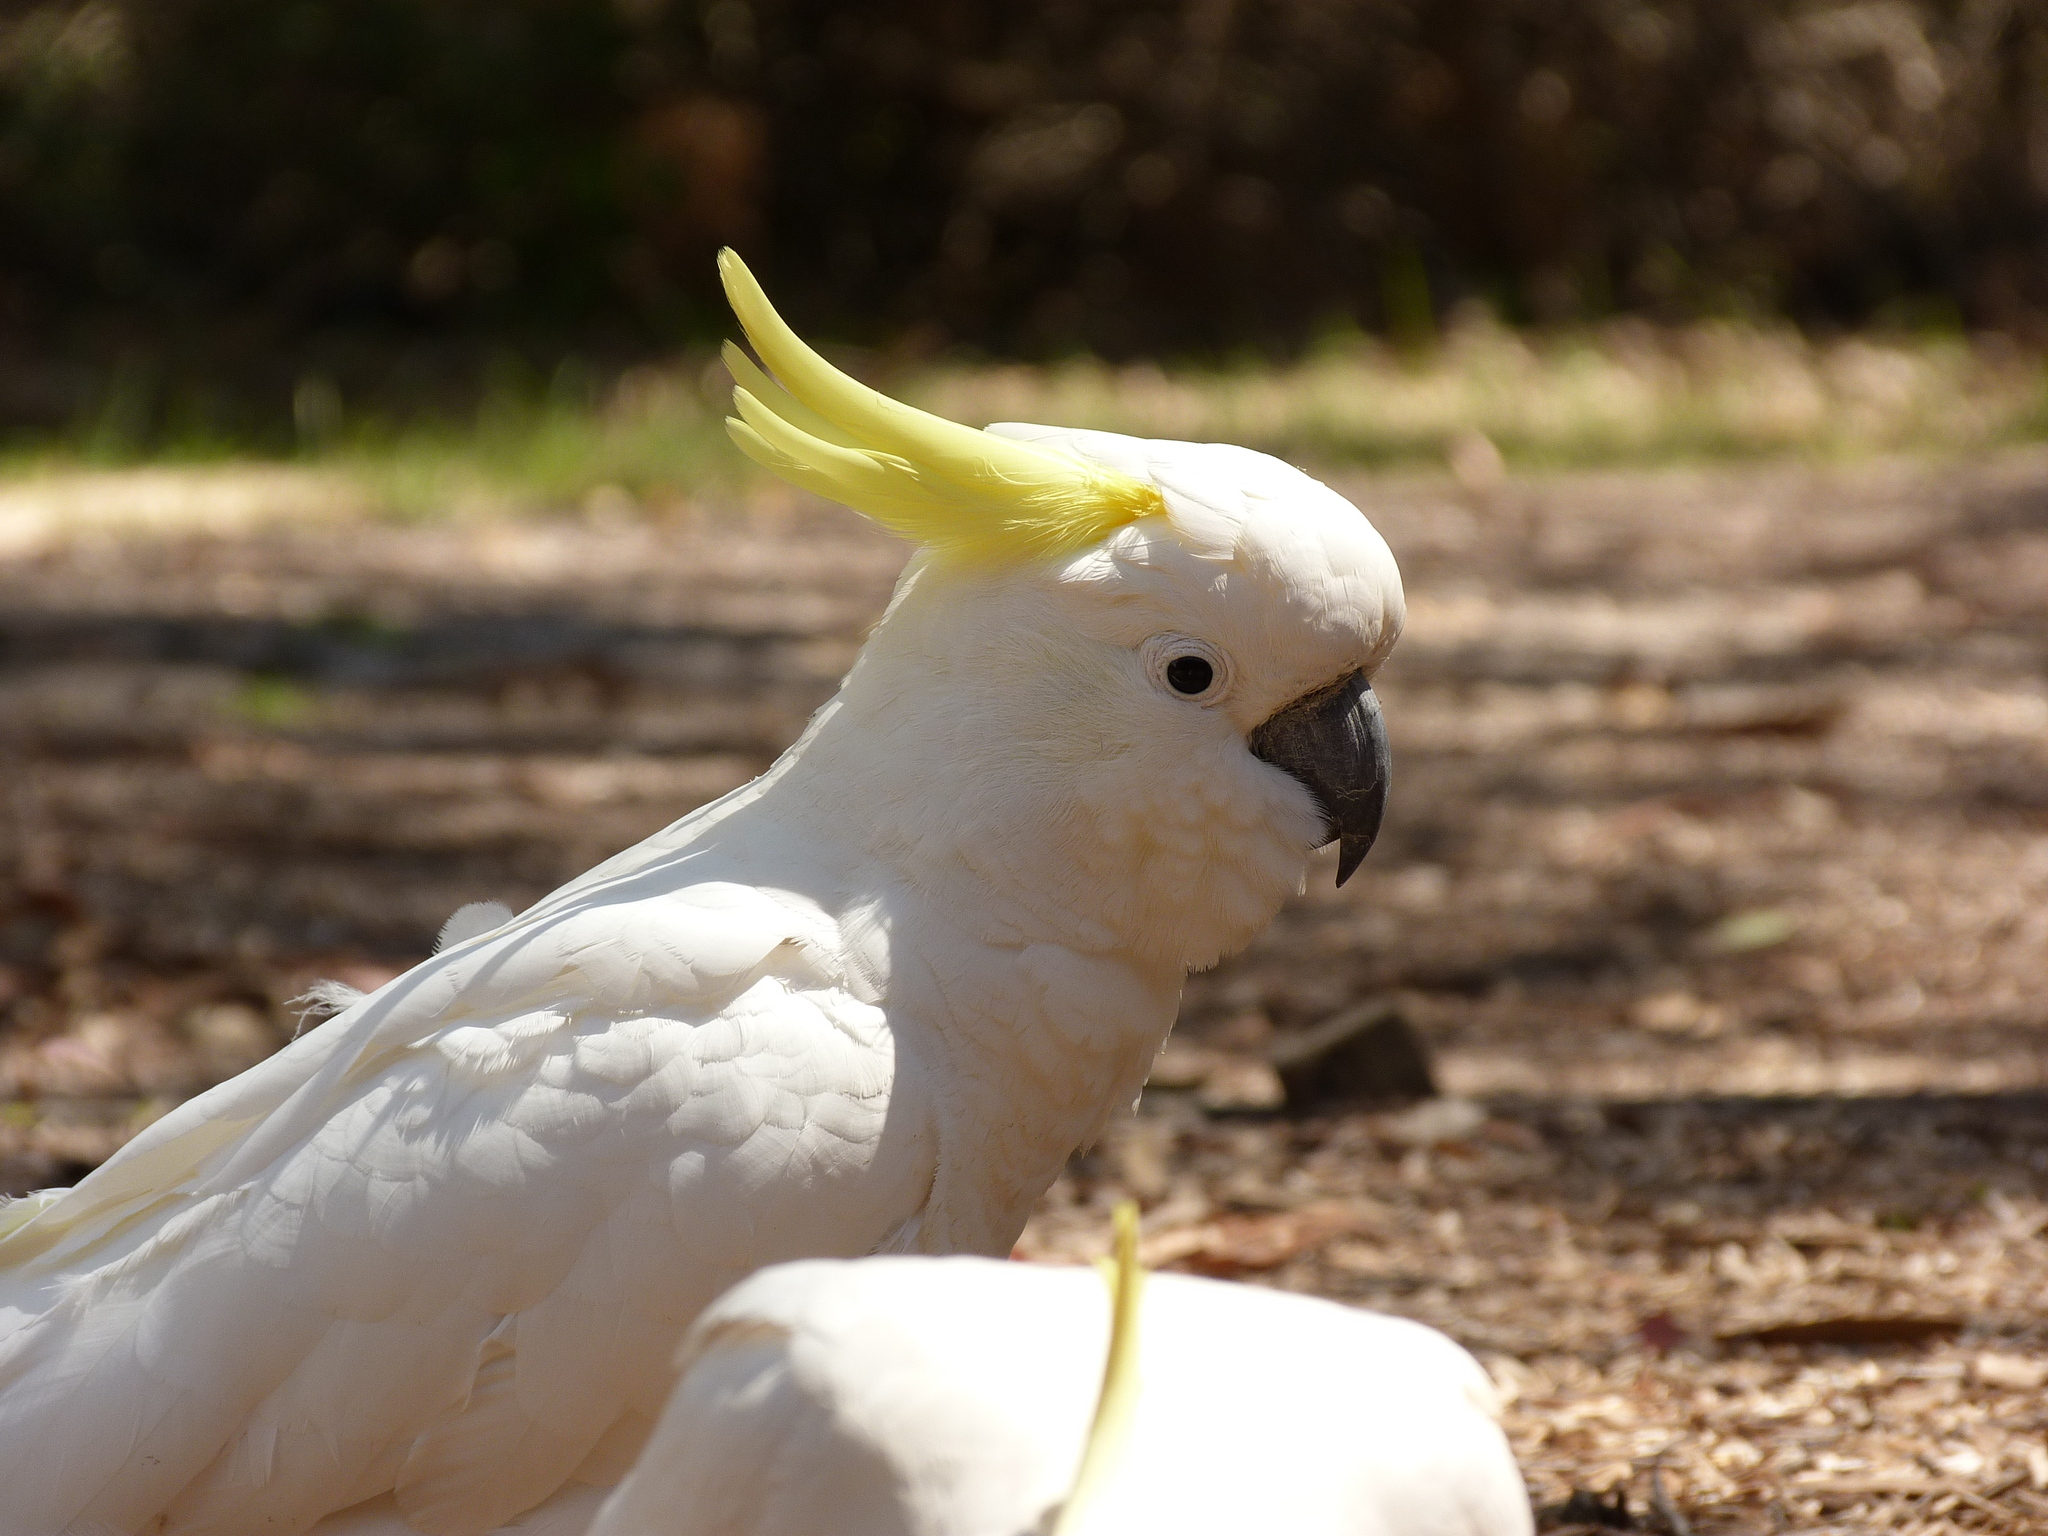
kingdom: Animalia
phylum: Chordata
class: Aves
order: Psittaciformes
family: Psittacidae
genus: Cacatua
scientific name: Cacatua galerita
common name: Sulphur-crested cockatoo
